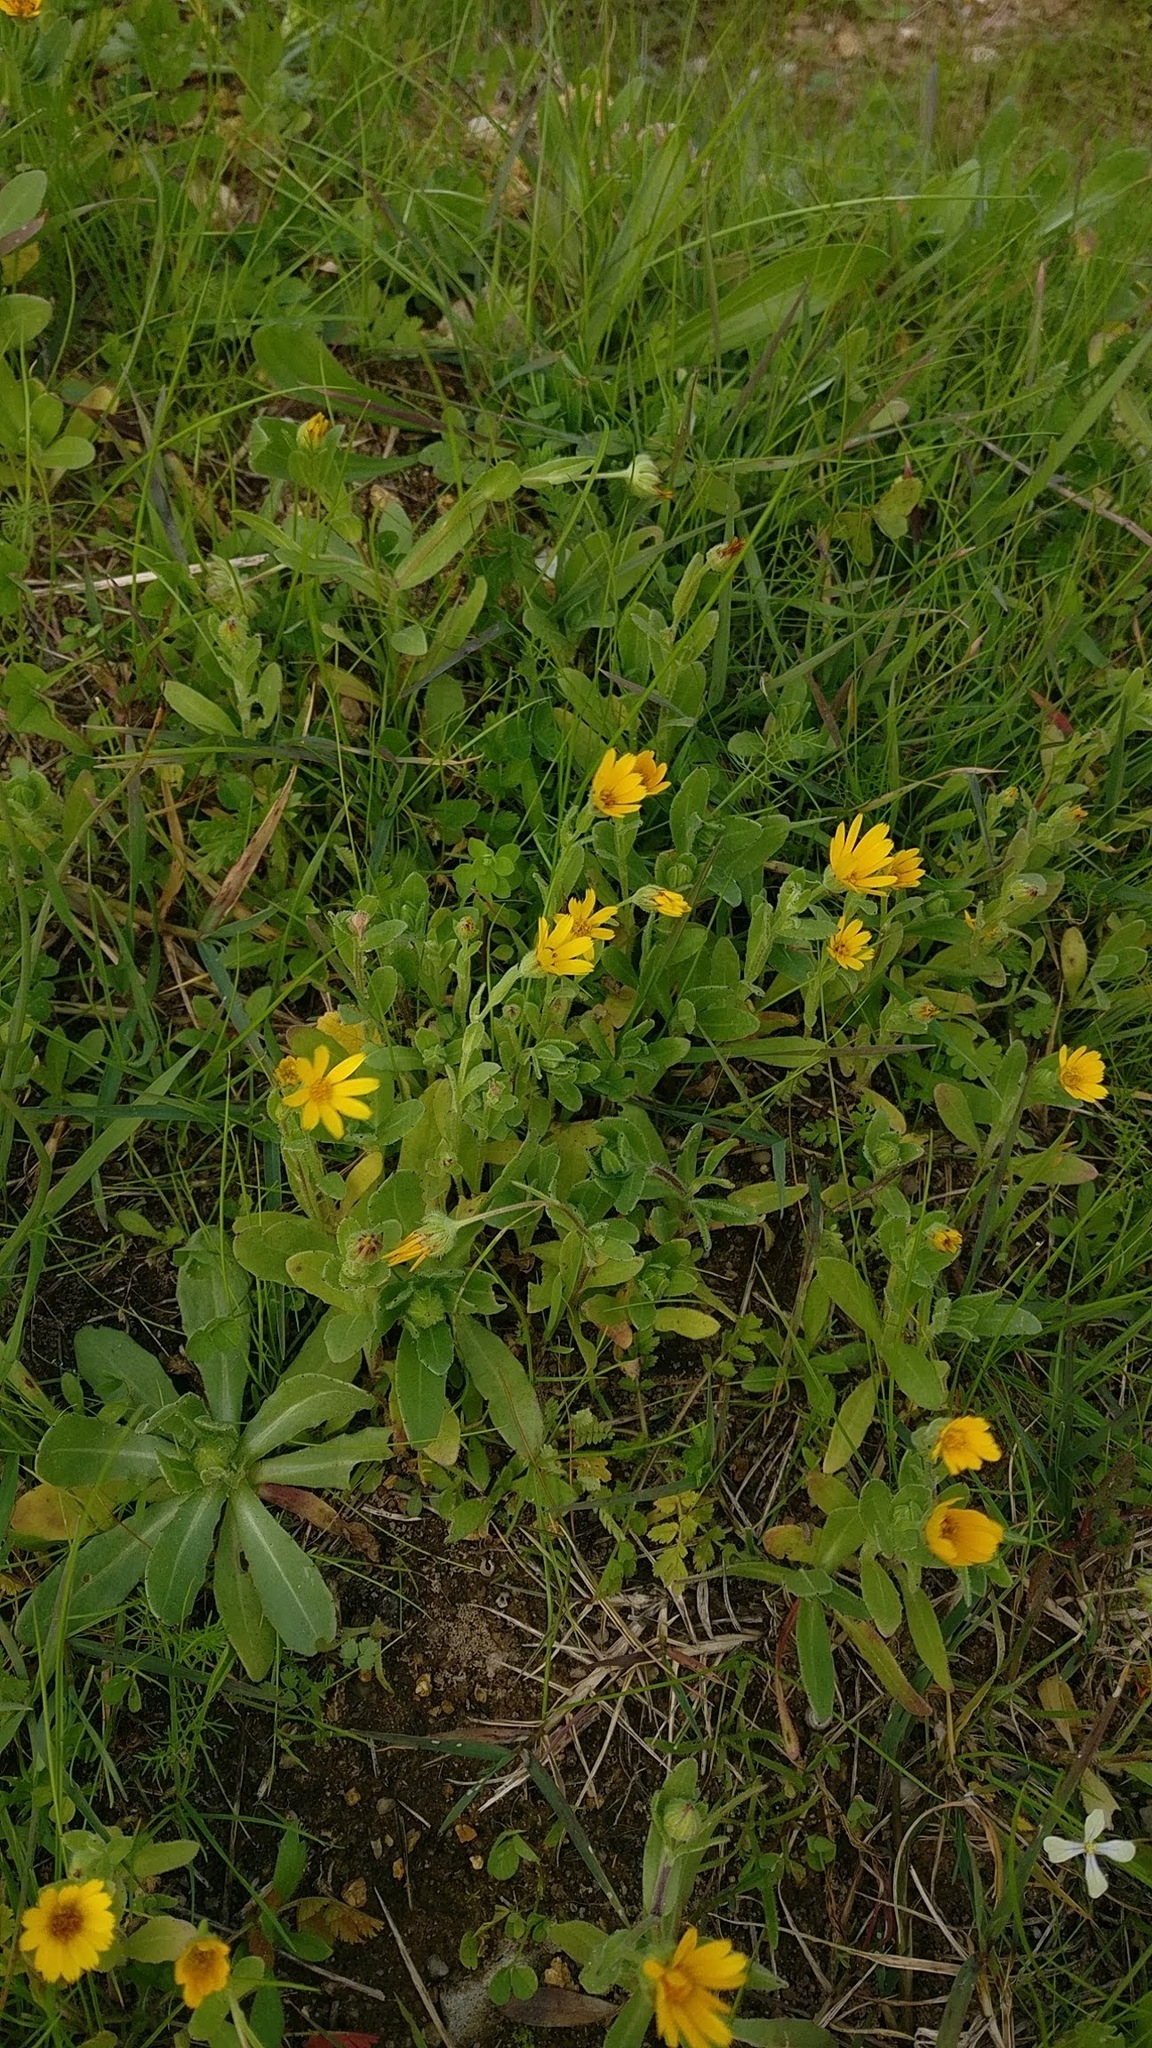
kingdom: Plantae
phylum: Tracheophyta
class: Magnoliopsida
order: Asterales
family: Asteraceae
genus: Calendula
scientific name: Calendula arvensis
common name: Field marigold
